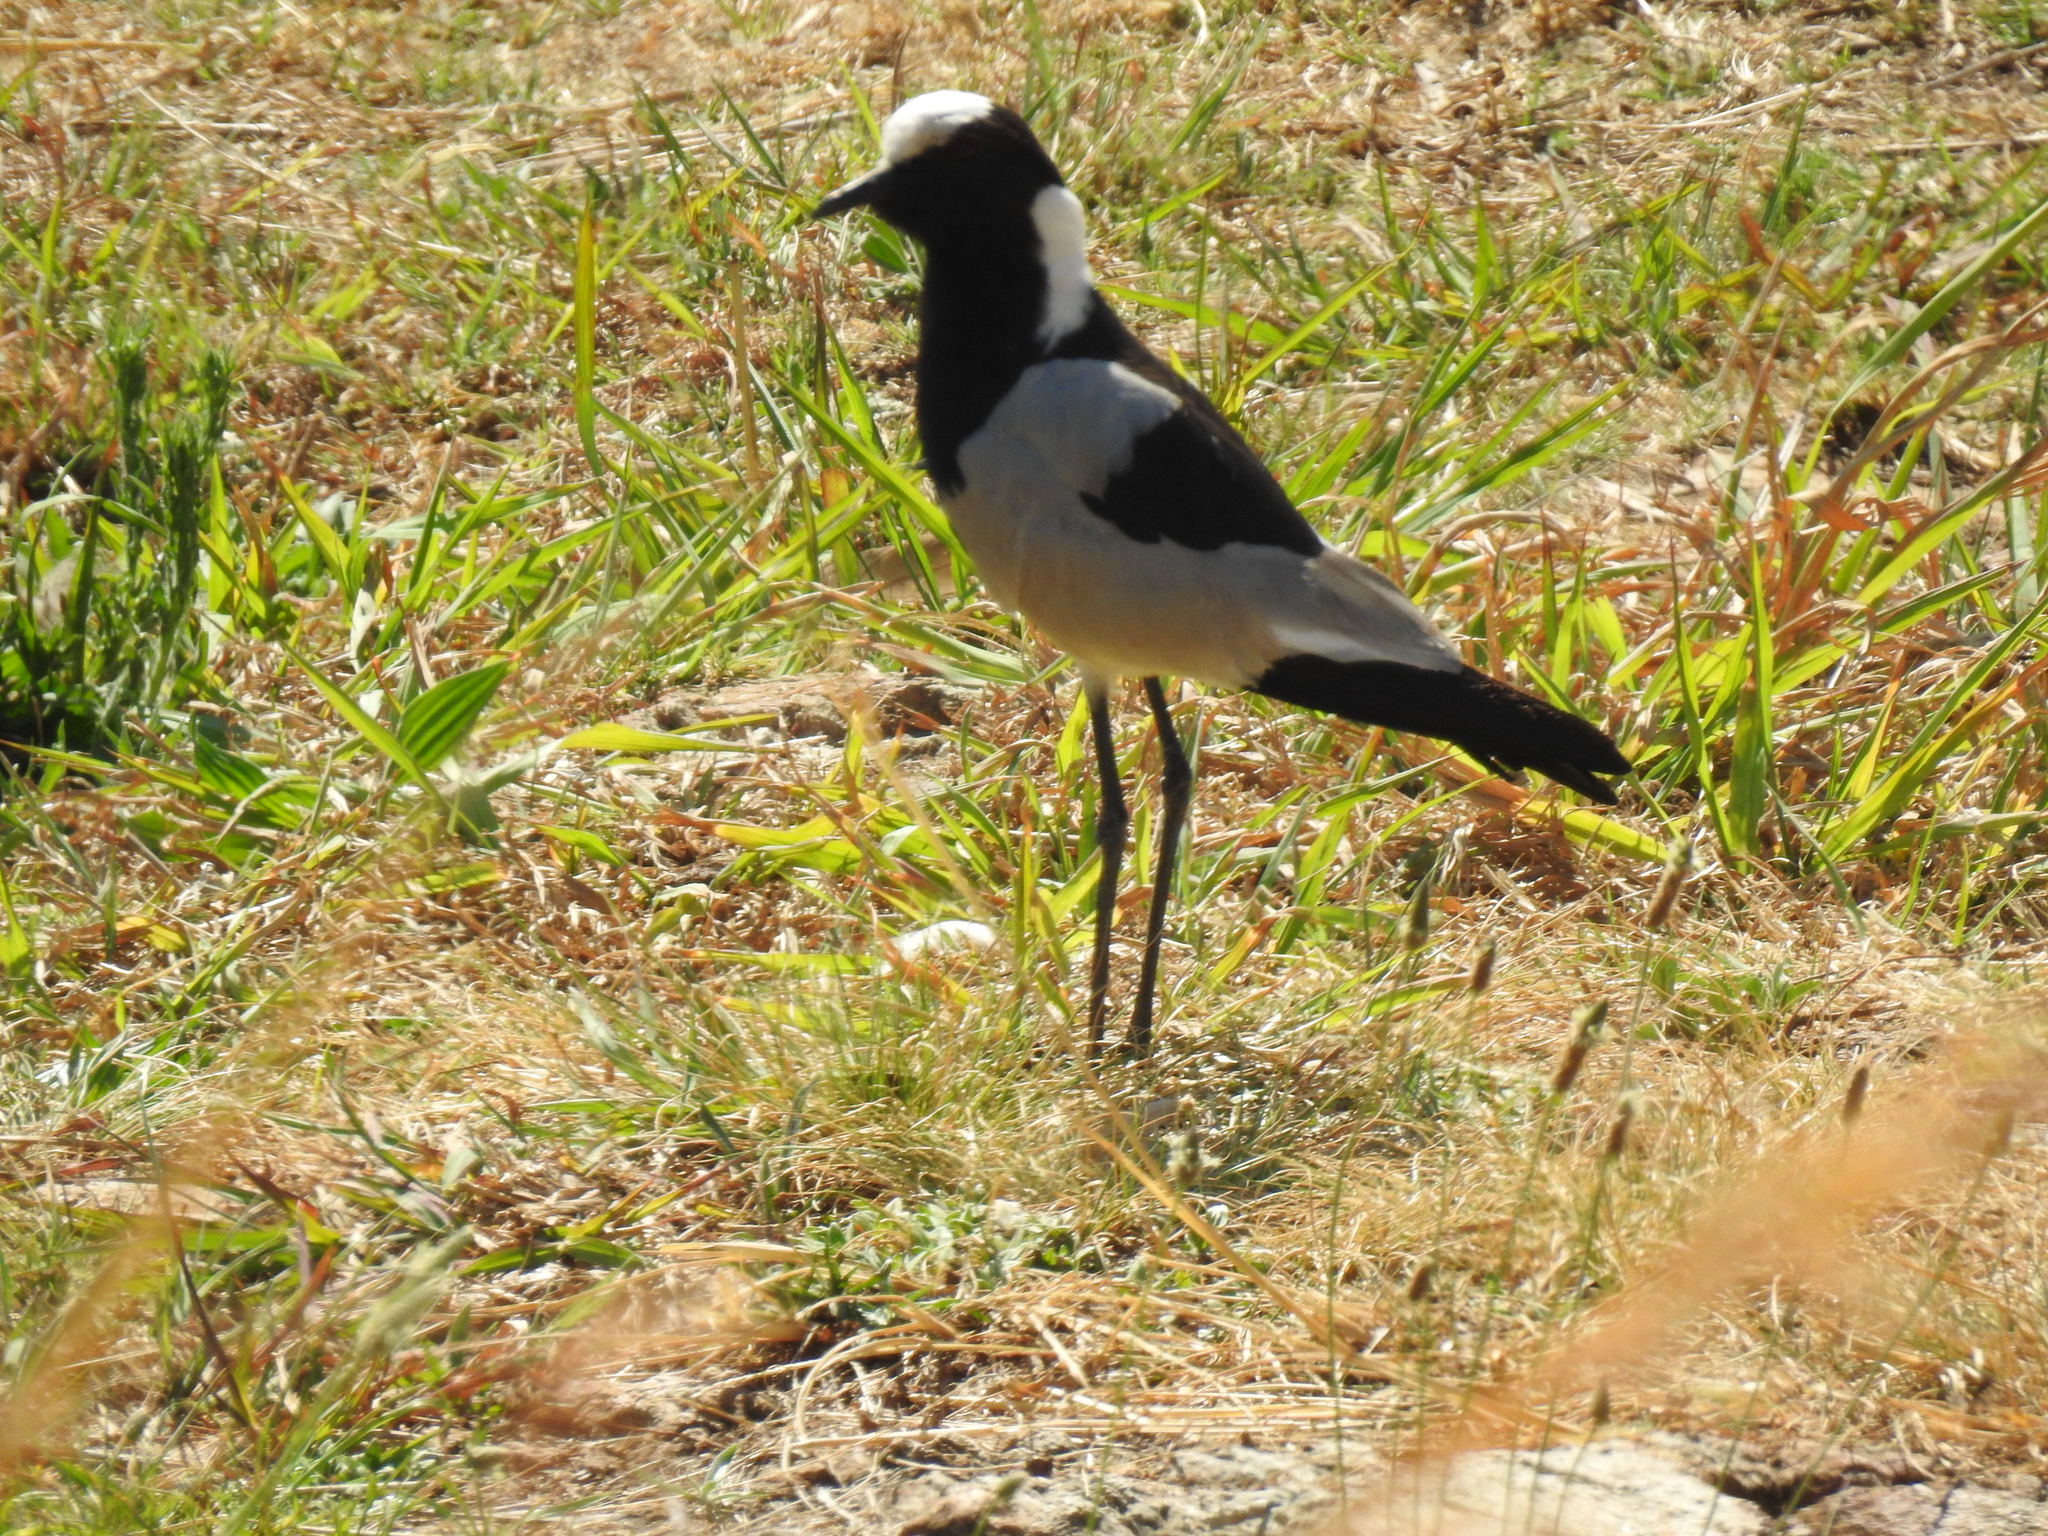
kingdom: Animalia
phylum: Chordata
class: Aves
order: Charadriiformes
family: Charadriidae
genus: Vanellus
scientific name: Vanellus armatus
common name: Blacksmith lapwing
